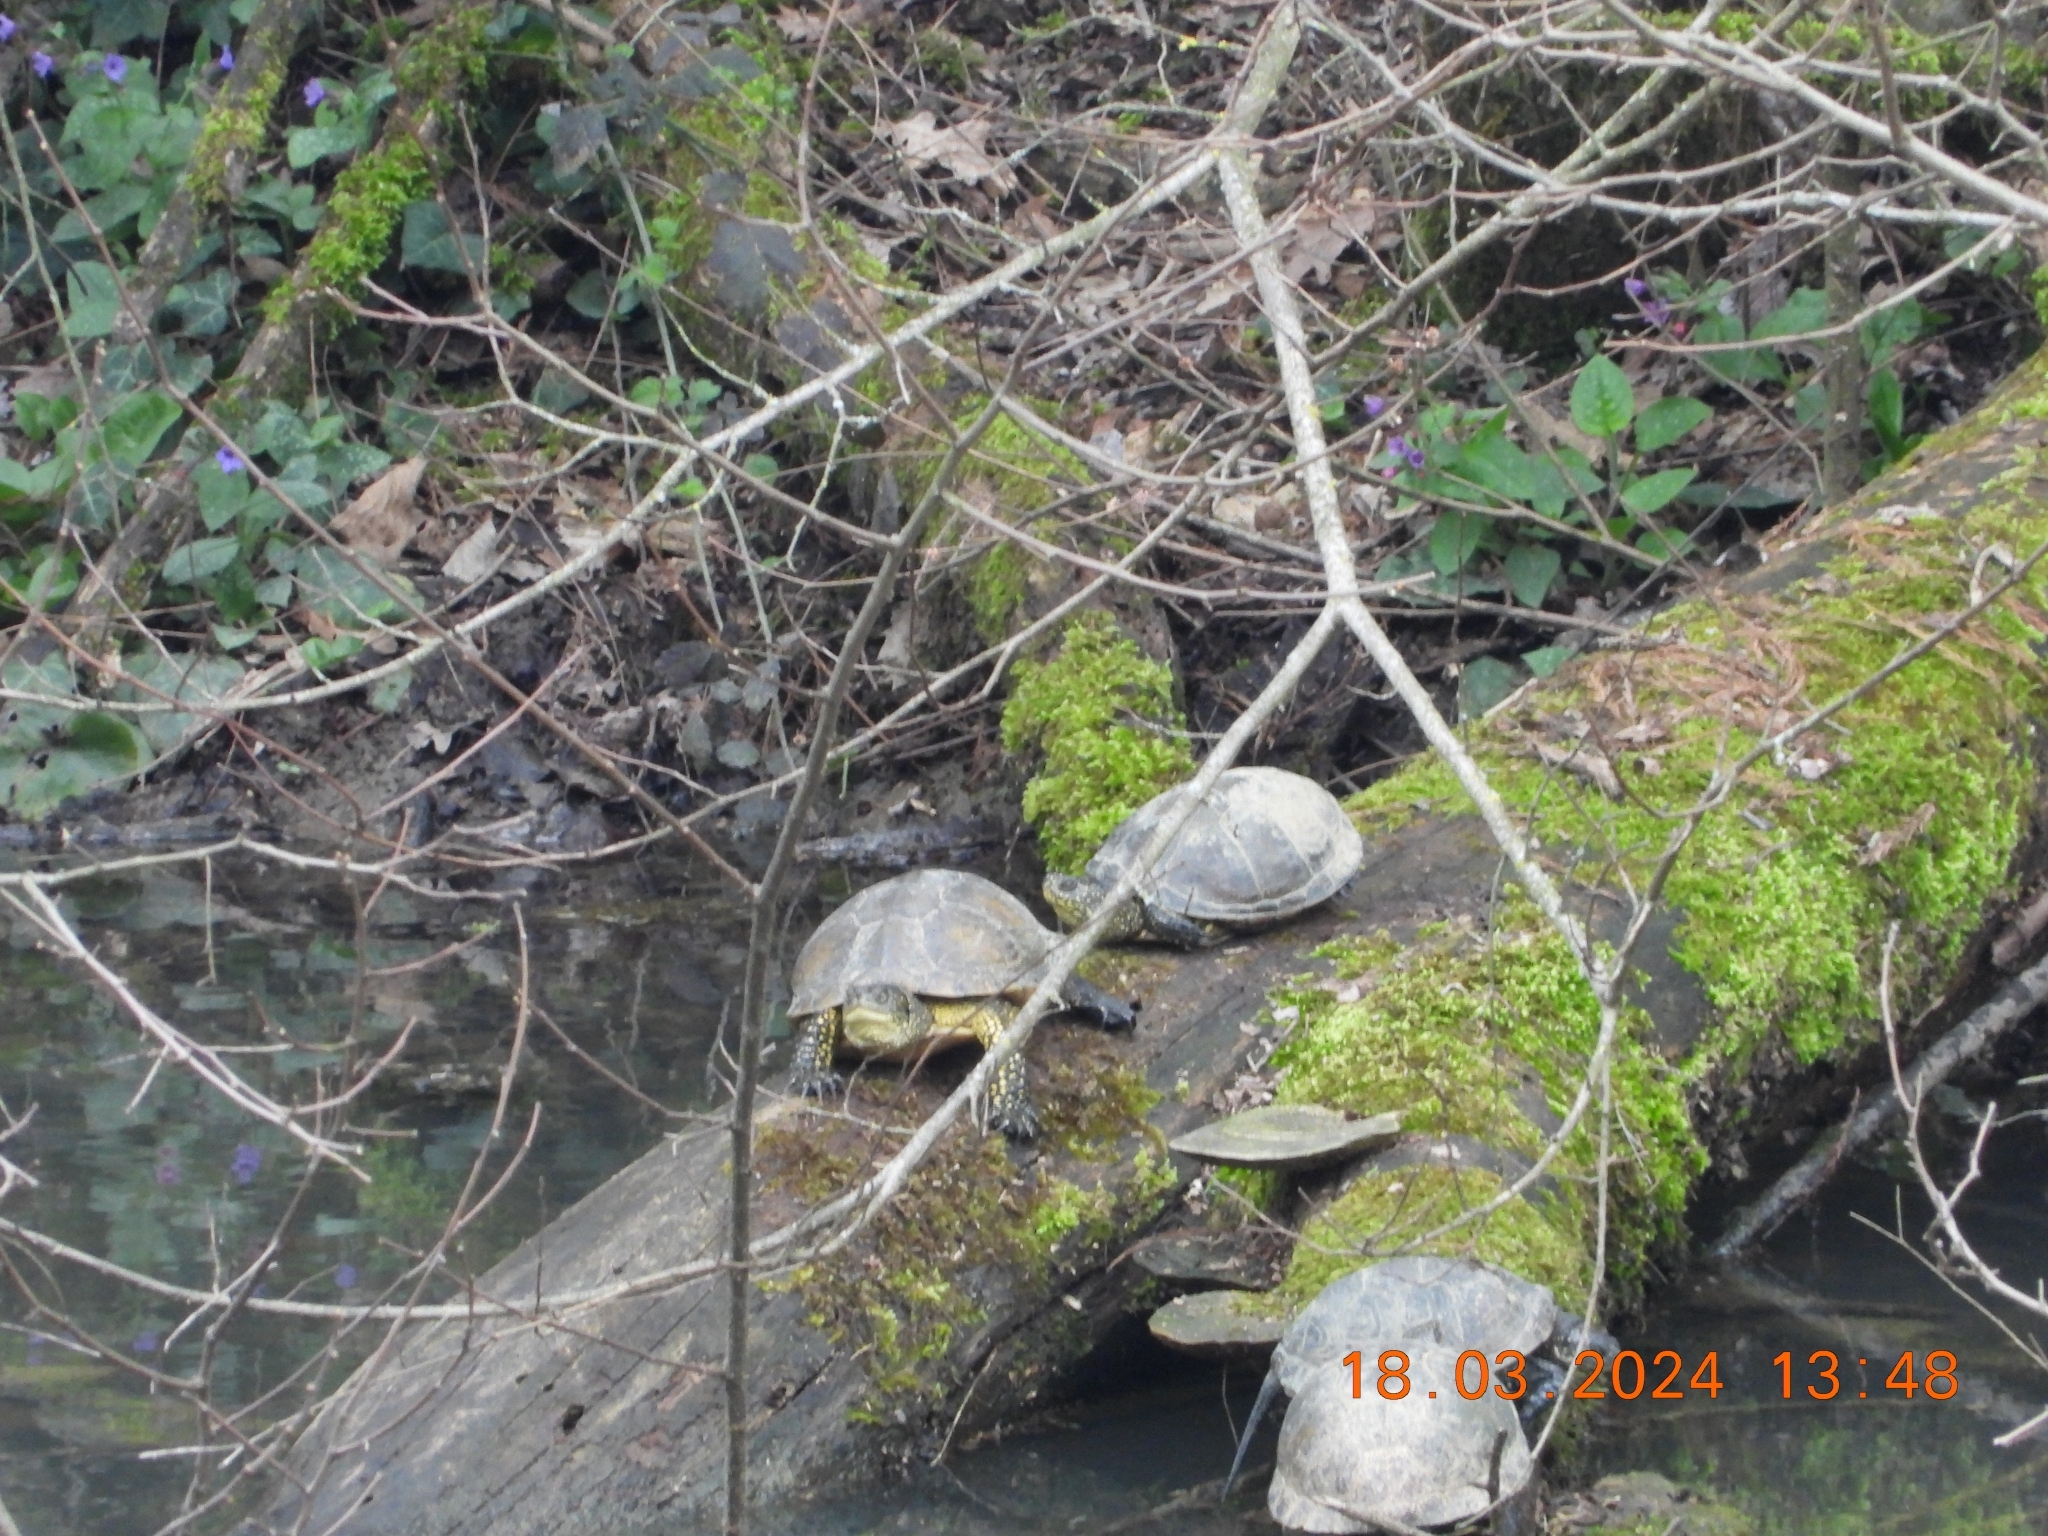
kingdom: Animalia
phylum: Chordata
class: Testudines
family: Emydidae
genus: Emys
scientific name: Emys orbicularis
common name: European pond turtle
